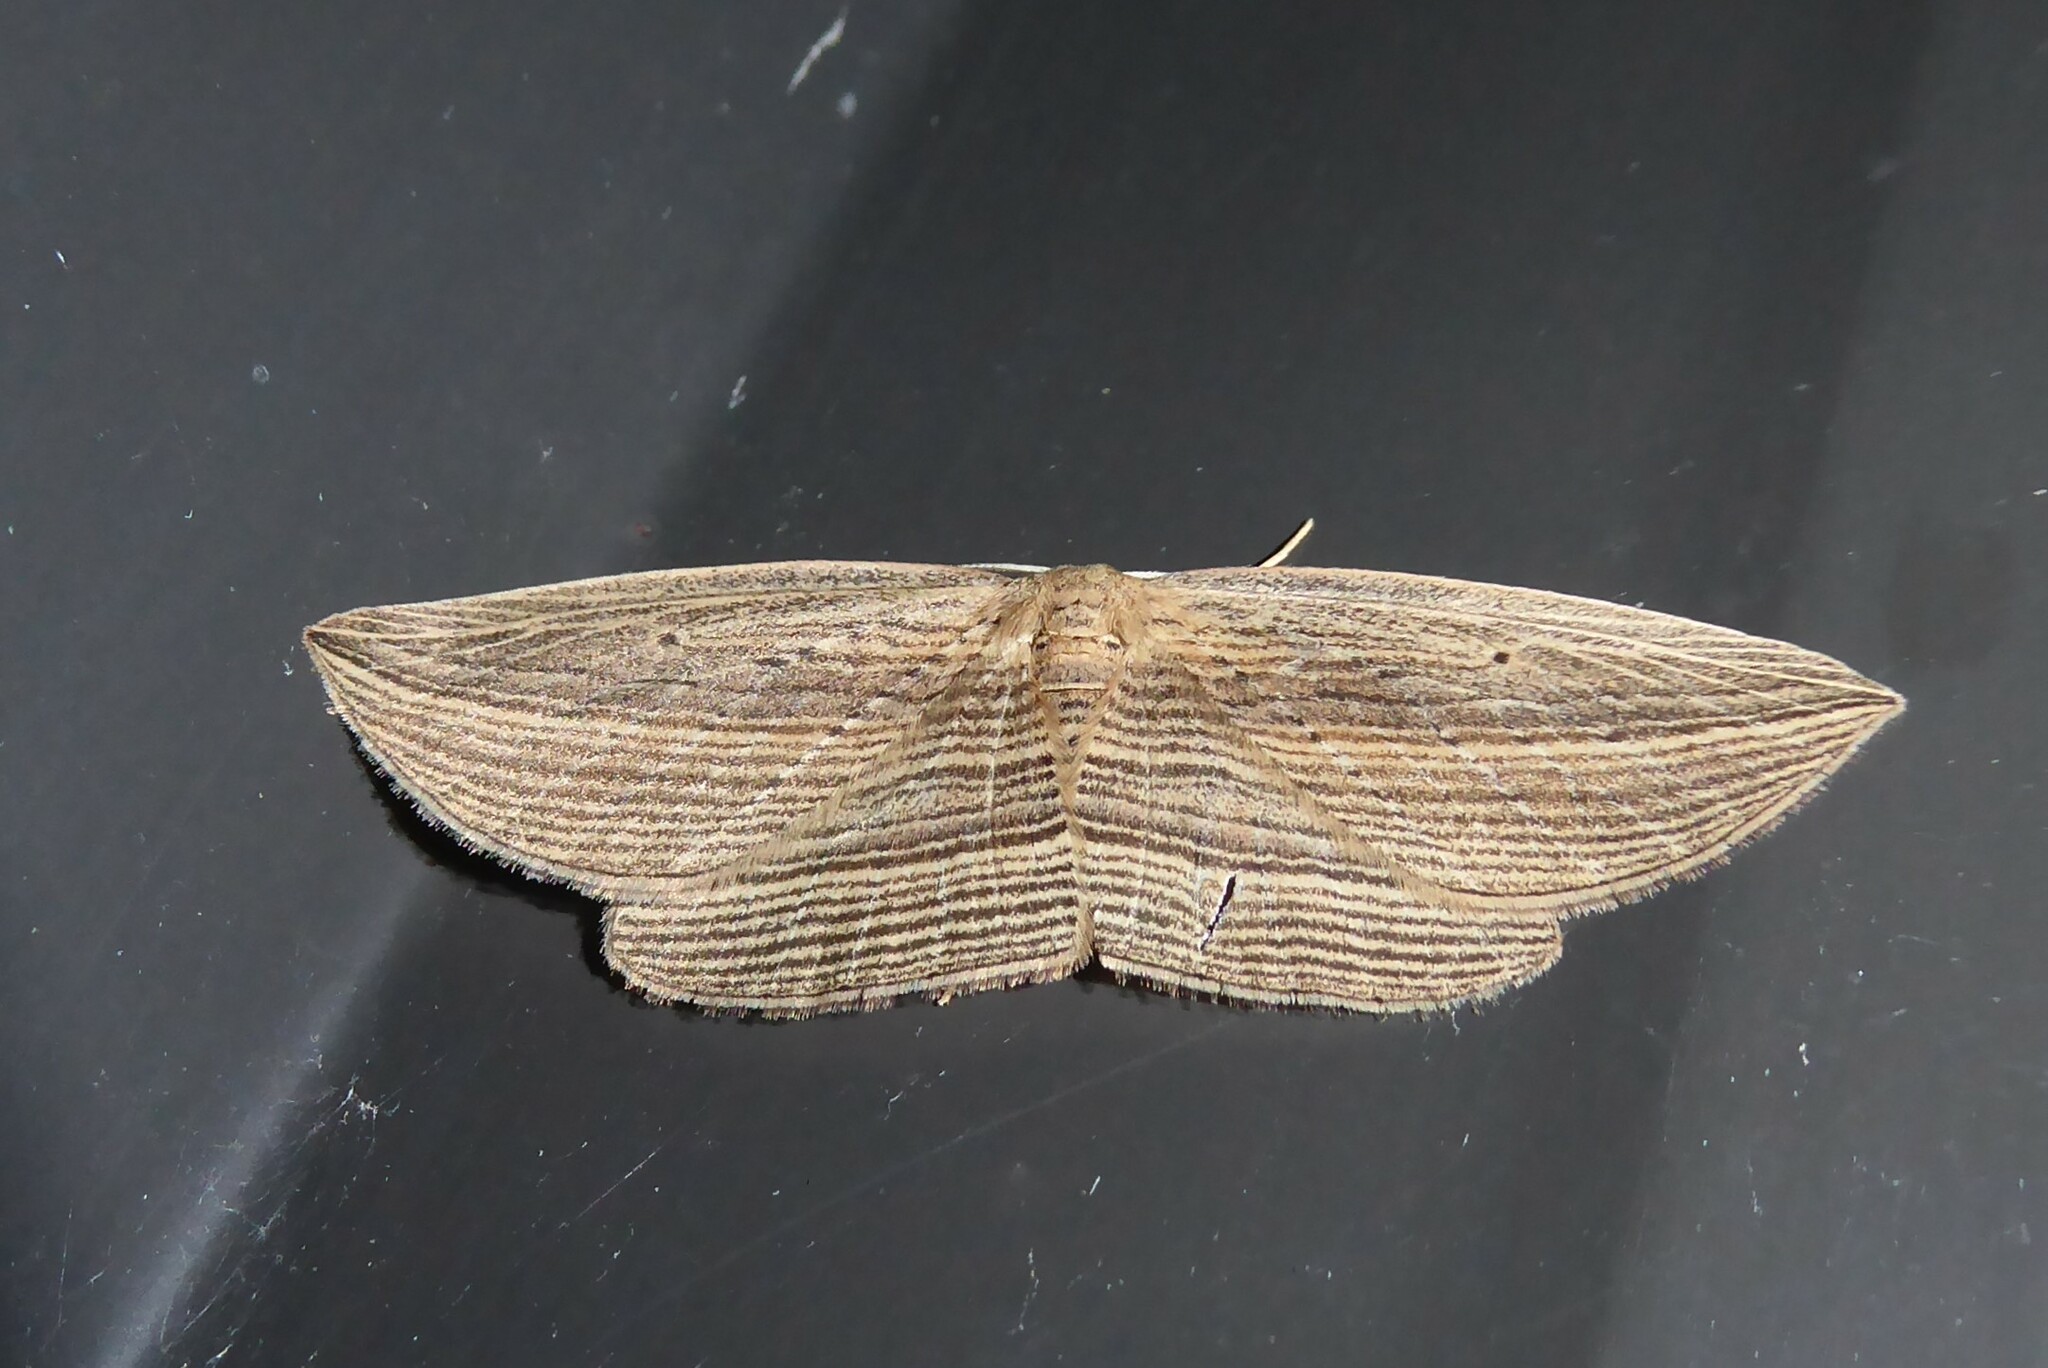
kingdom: Animalia
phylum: Arthropoda
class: Insecta
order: Lepidoptera
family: Geometridae
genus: Epiphryne
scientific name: Epiphryne verriculata
